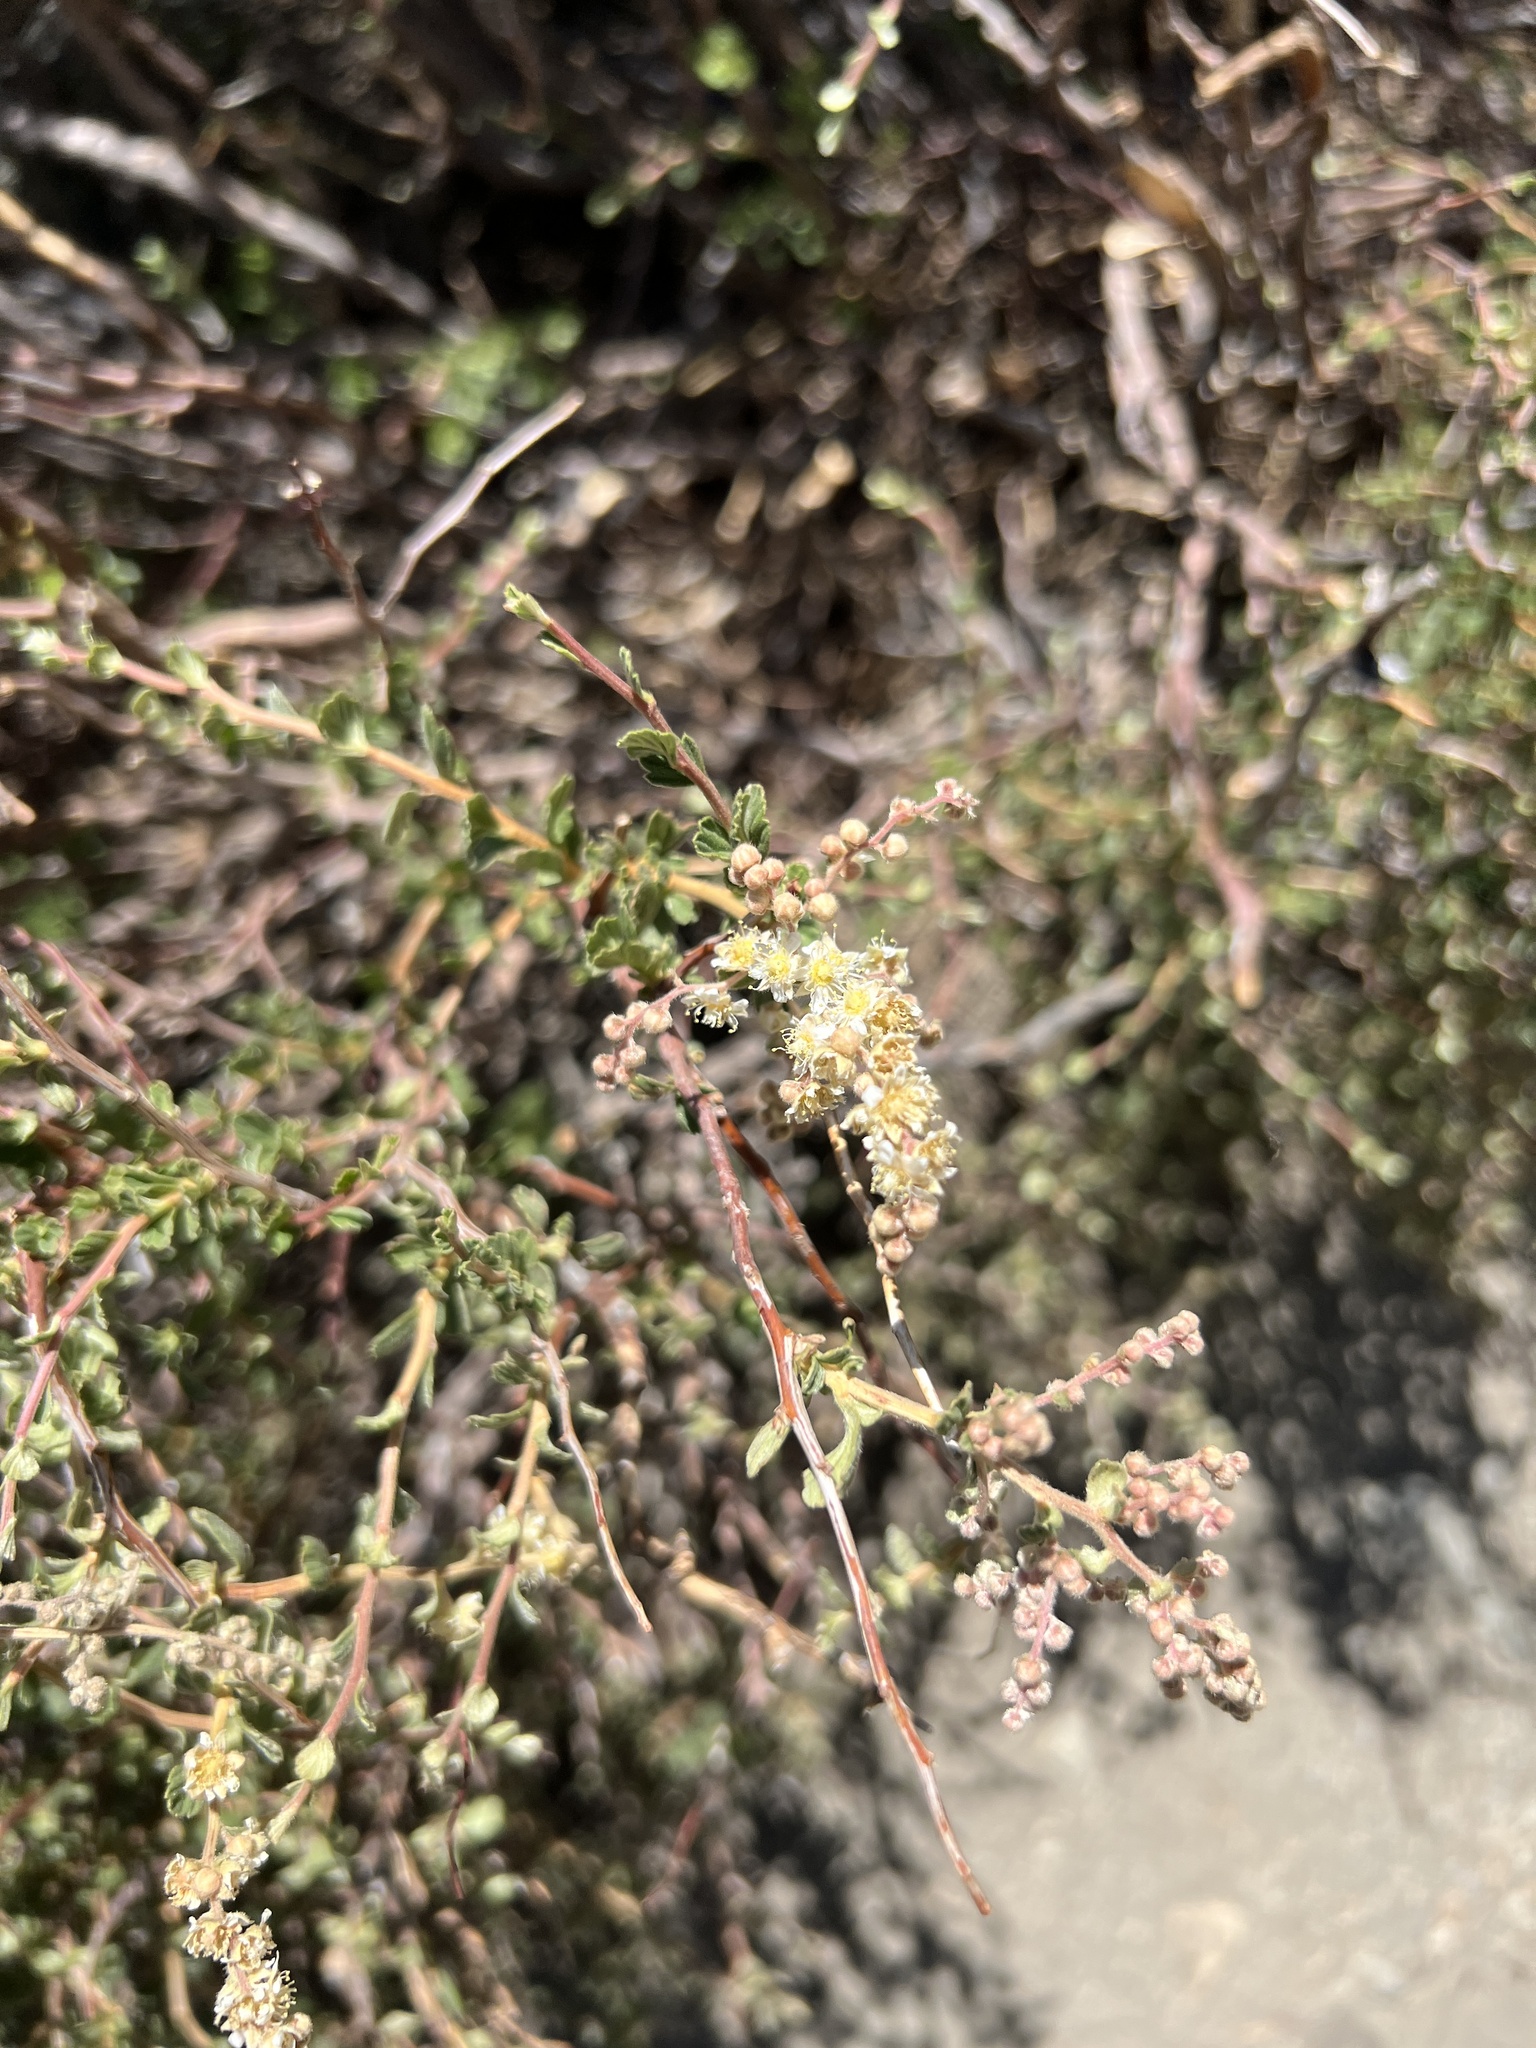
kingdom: Plantae
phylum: Tracheophyta
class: Magnoliopsida
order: Rosales
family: Rosaceae
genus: Holodiscus
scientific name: Holodiscus discolor
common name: Oceanspray
